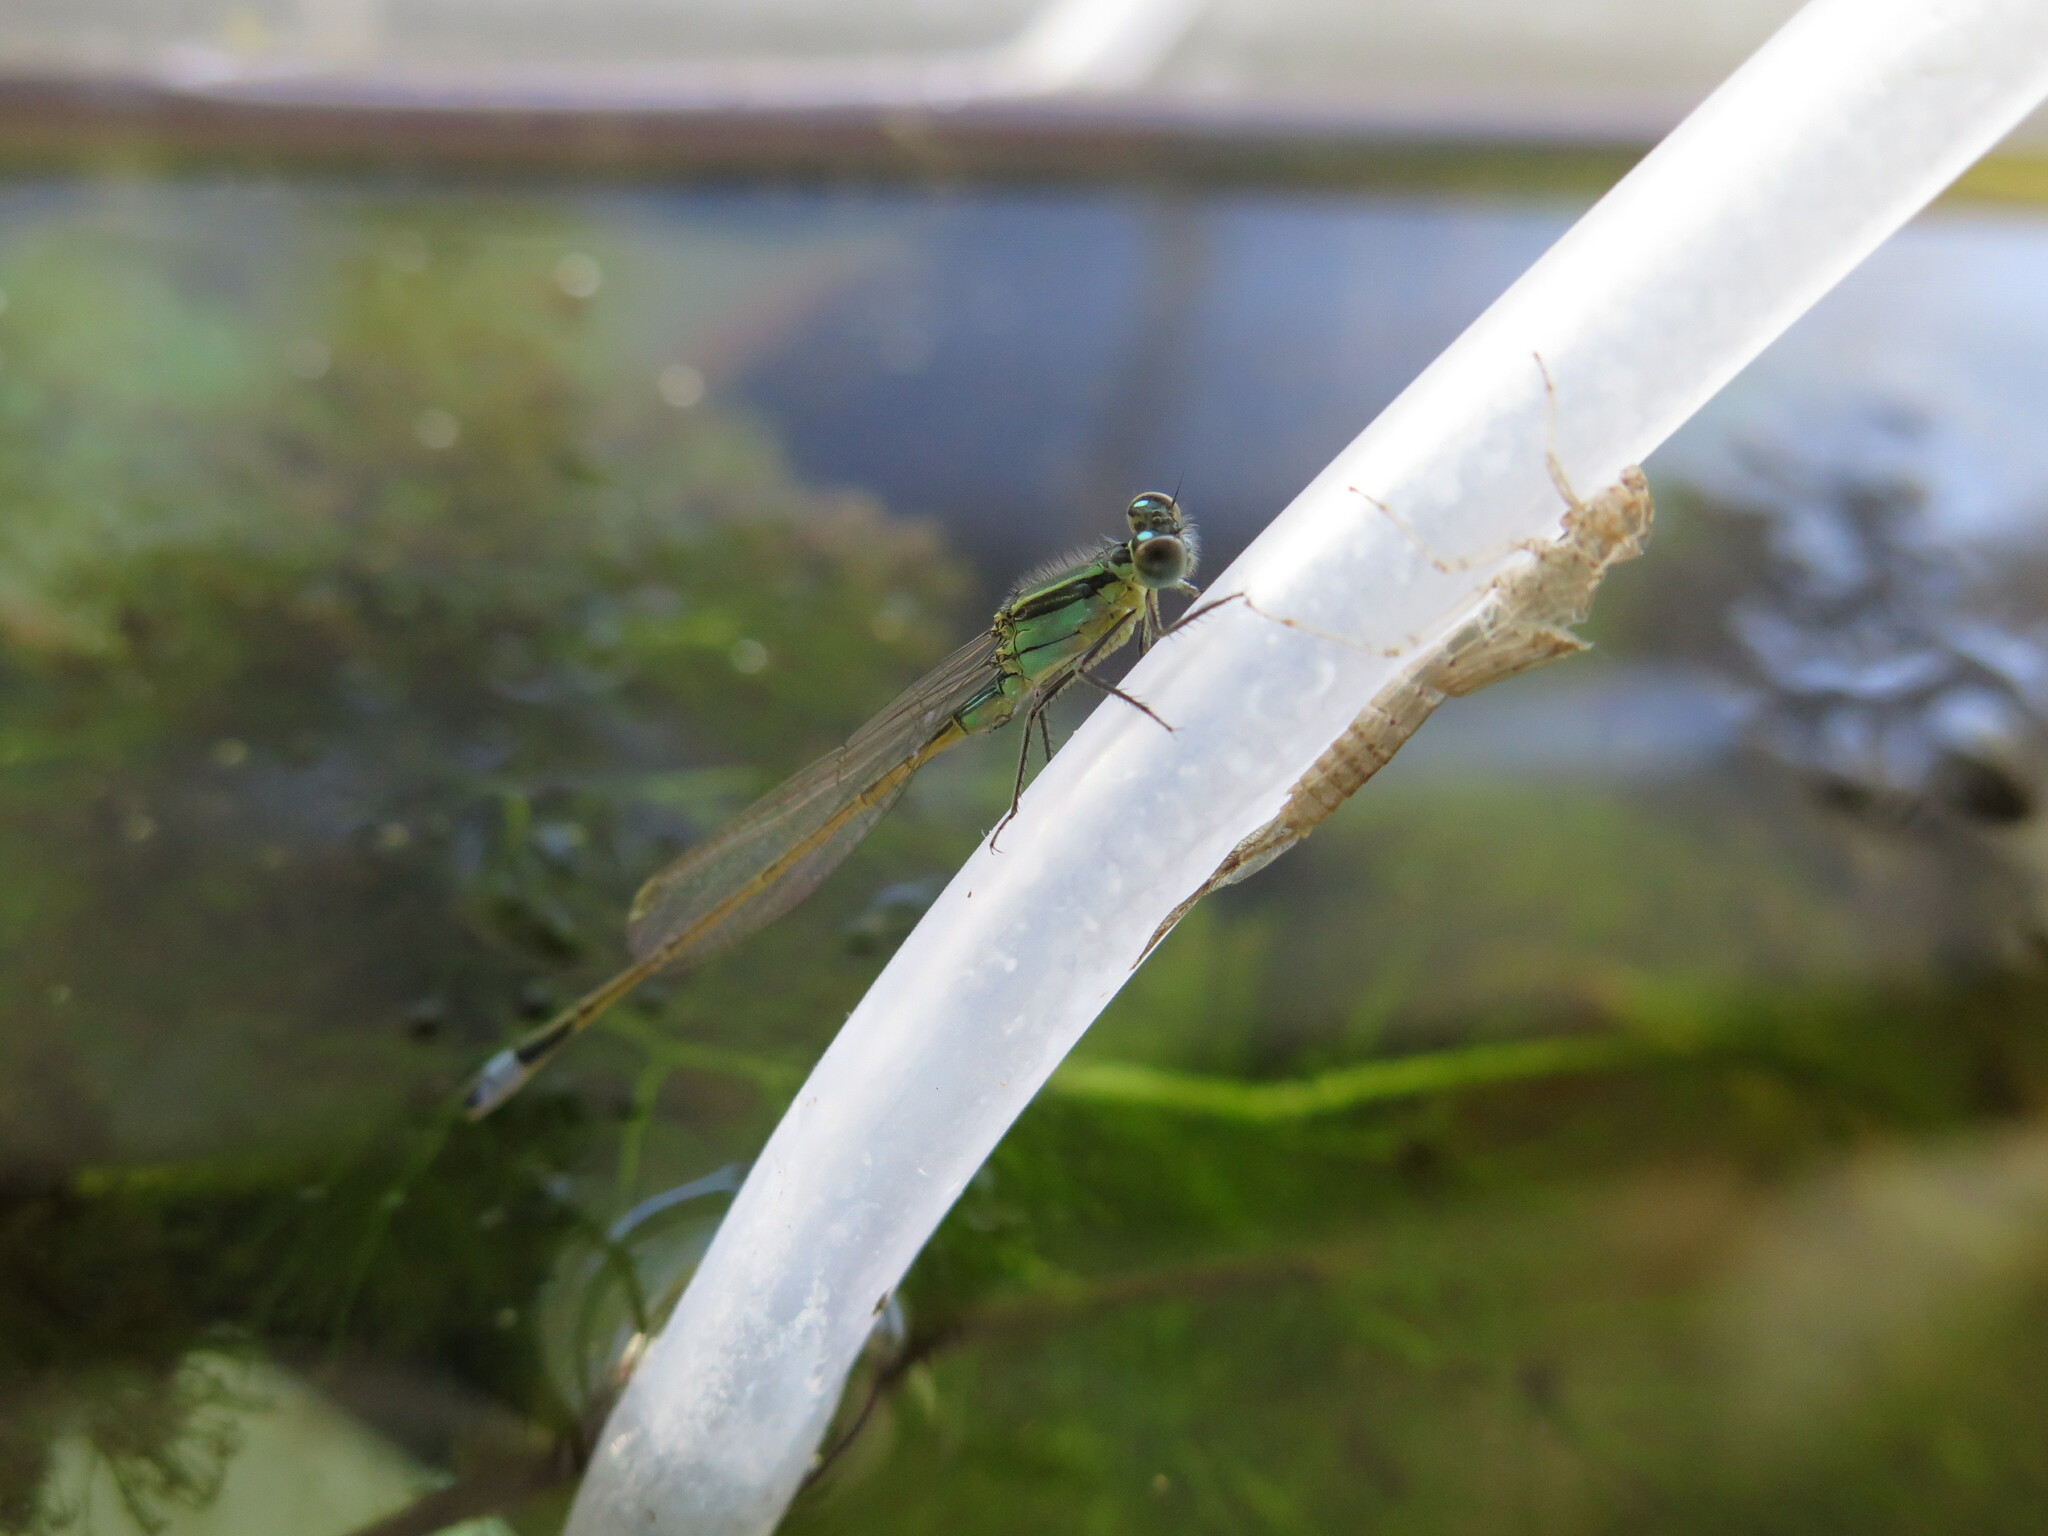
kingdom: Animalia
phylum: Arthropoda
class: Insecta
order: Odonata
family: Coenagrionidae
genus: Ischnura
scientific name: Ischnura ramburii
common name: Rambur's forktail
